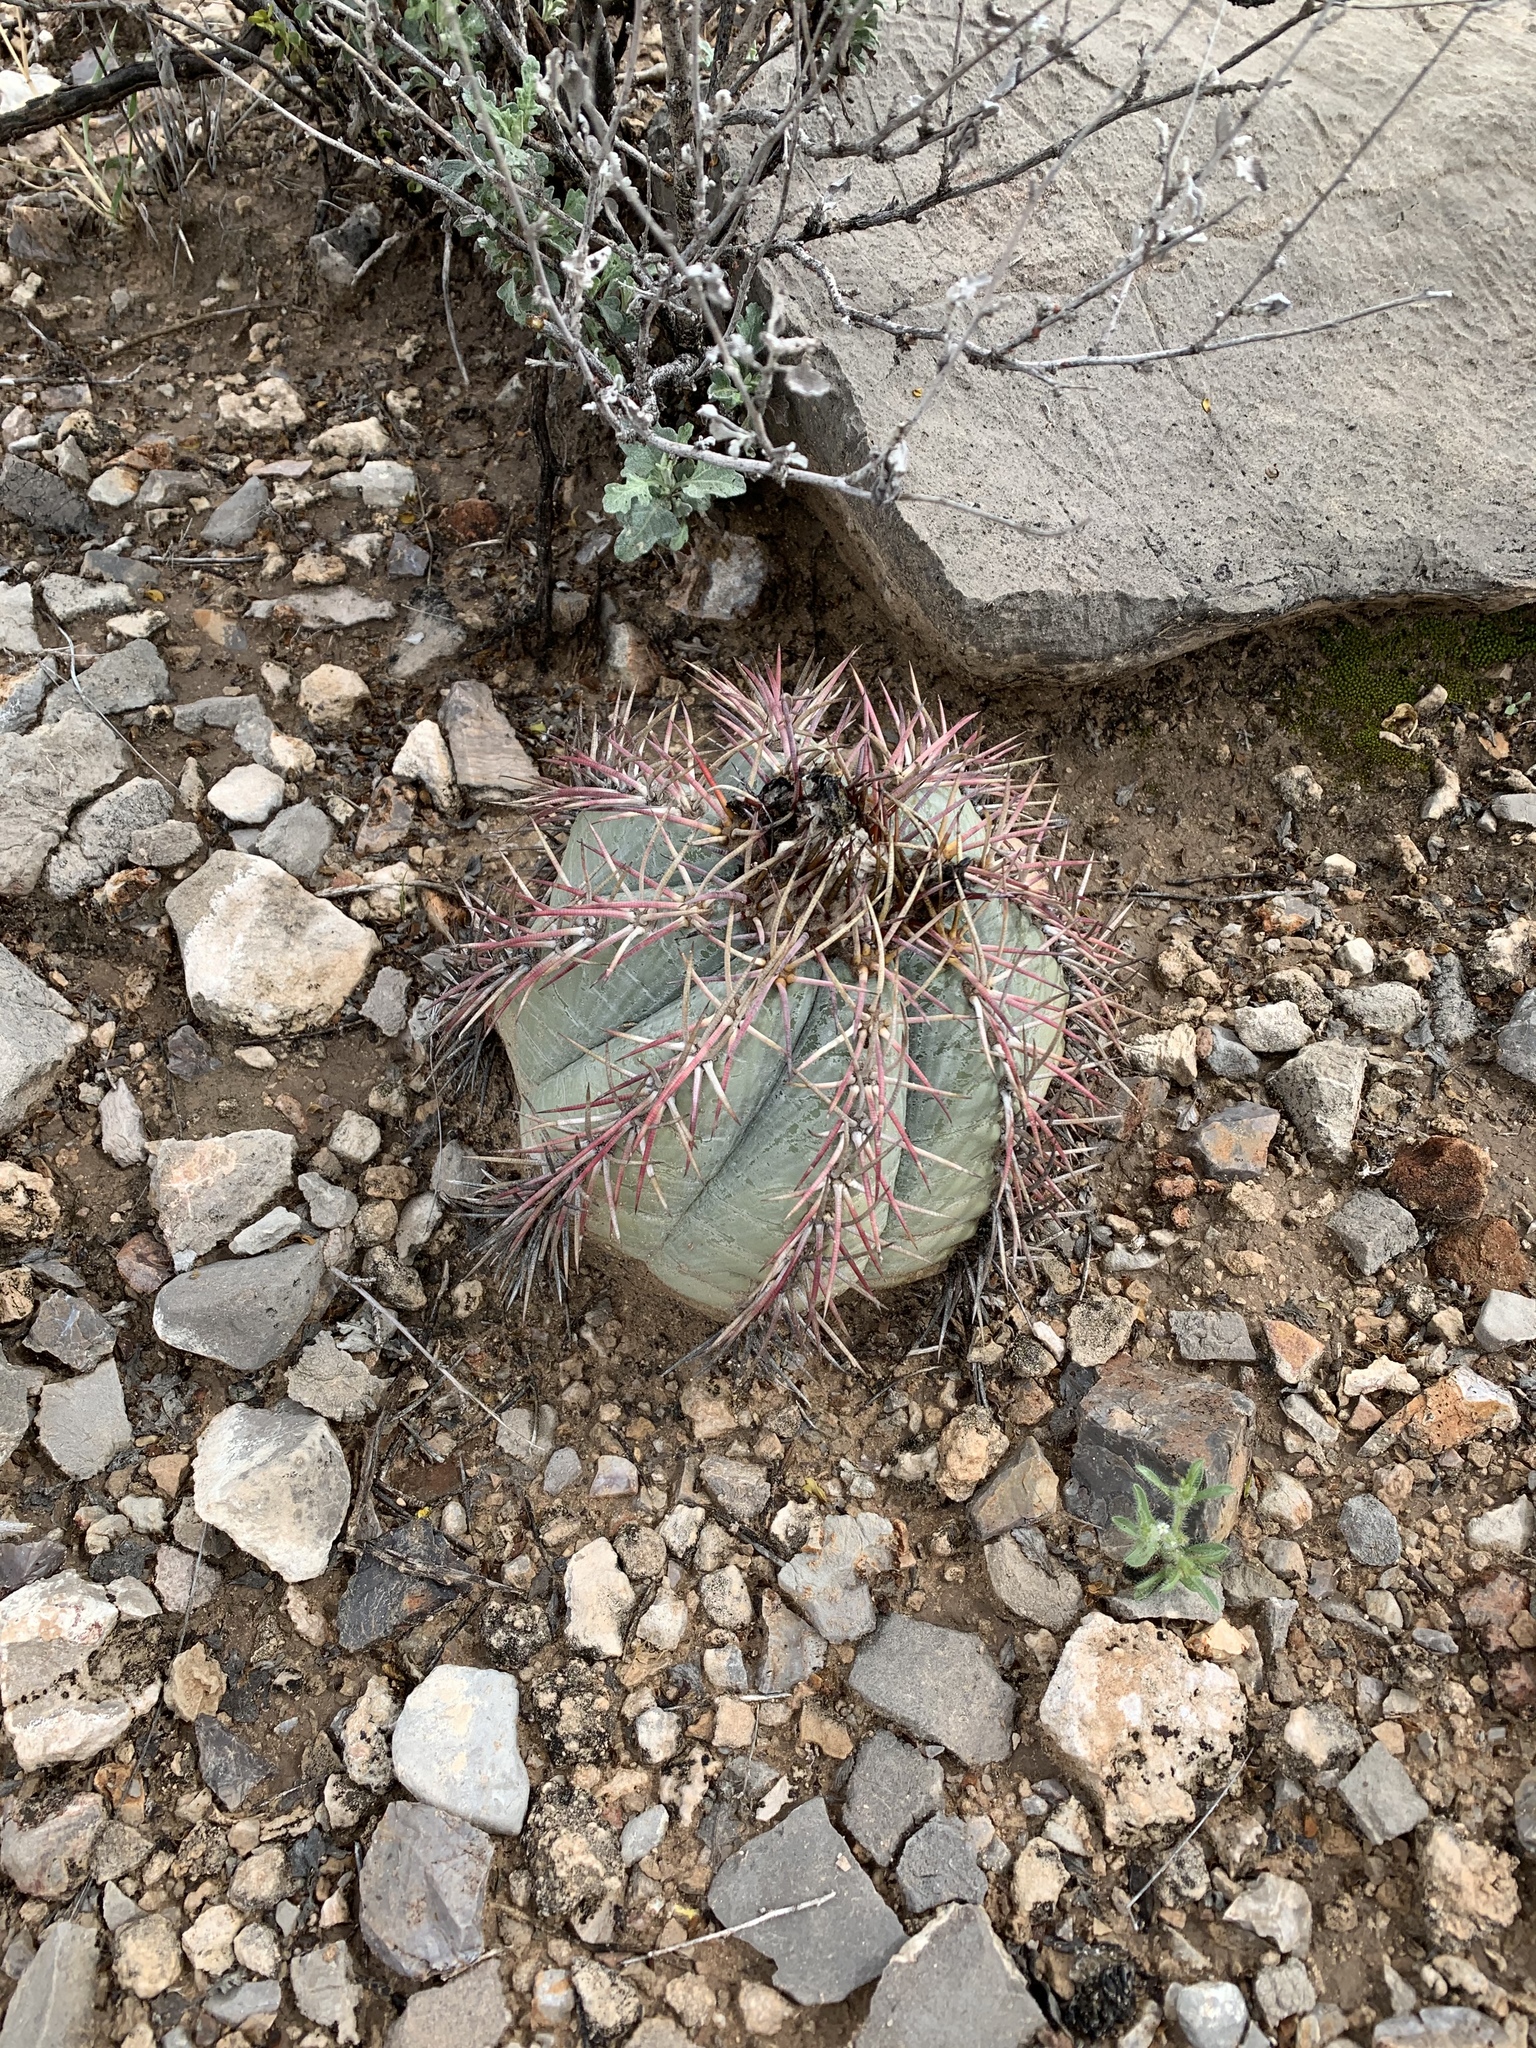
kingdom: Plantae
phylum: Tracheophyta
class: Magnoliopsida
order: Caryophyllales
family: Cactaceae
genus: Echinocactus
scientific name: Echinocactus horizonthalonius
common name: Devilshead
